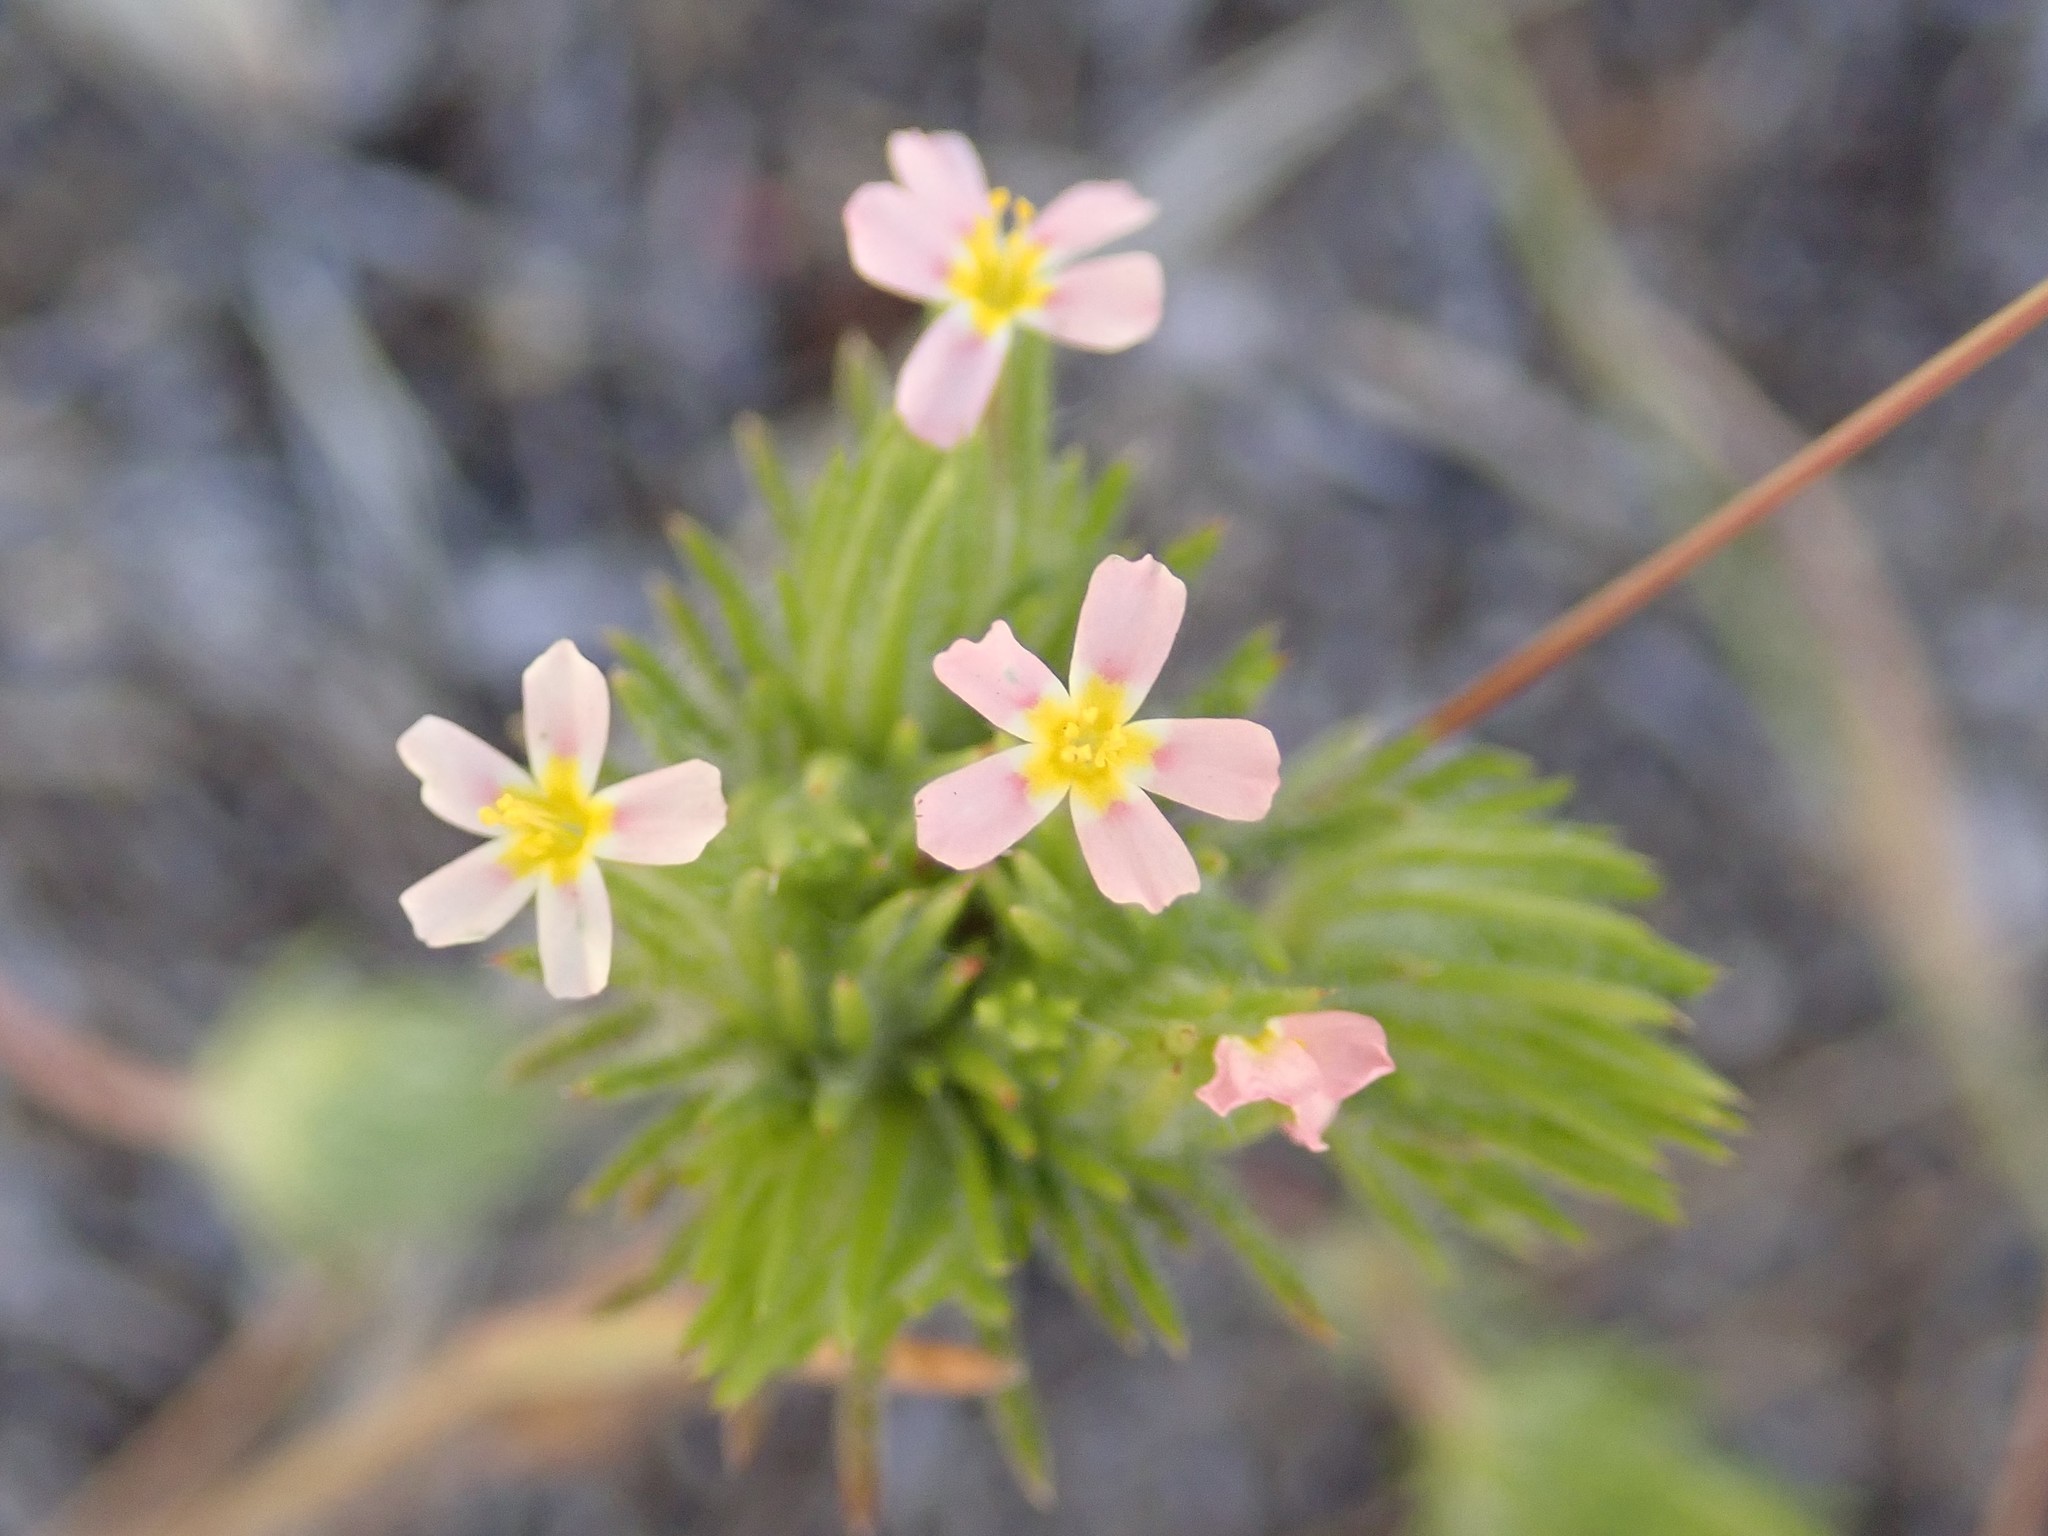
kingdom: Plantae
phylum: Tracheophyta
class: Magnoliopsida
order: Ericales
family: Polemoniaceae
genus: Leptosiphon
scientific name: Leptosiphon ciliatus
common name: Whiskerbrush
